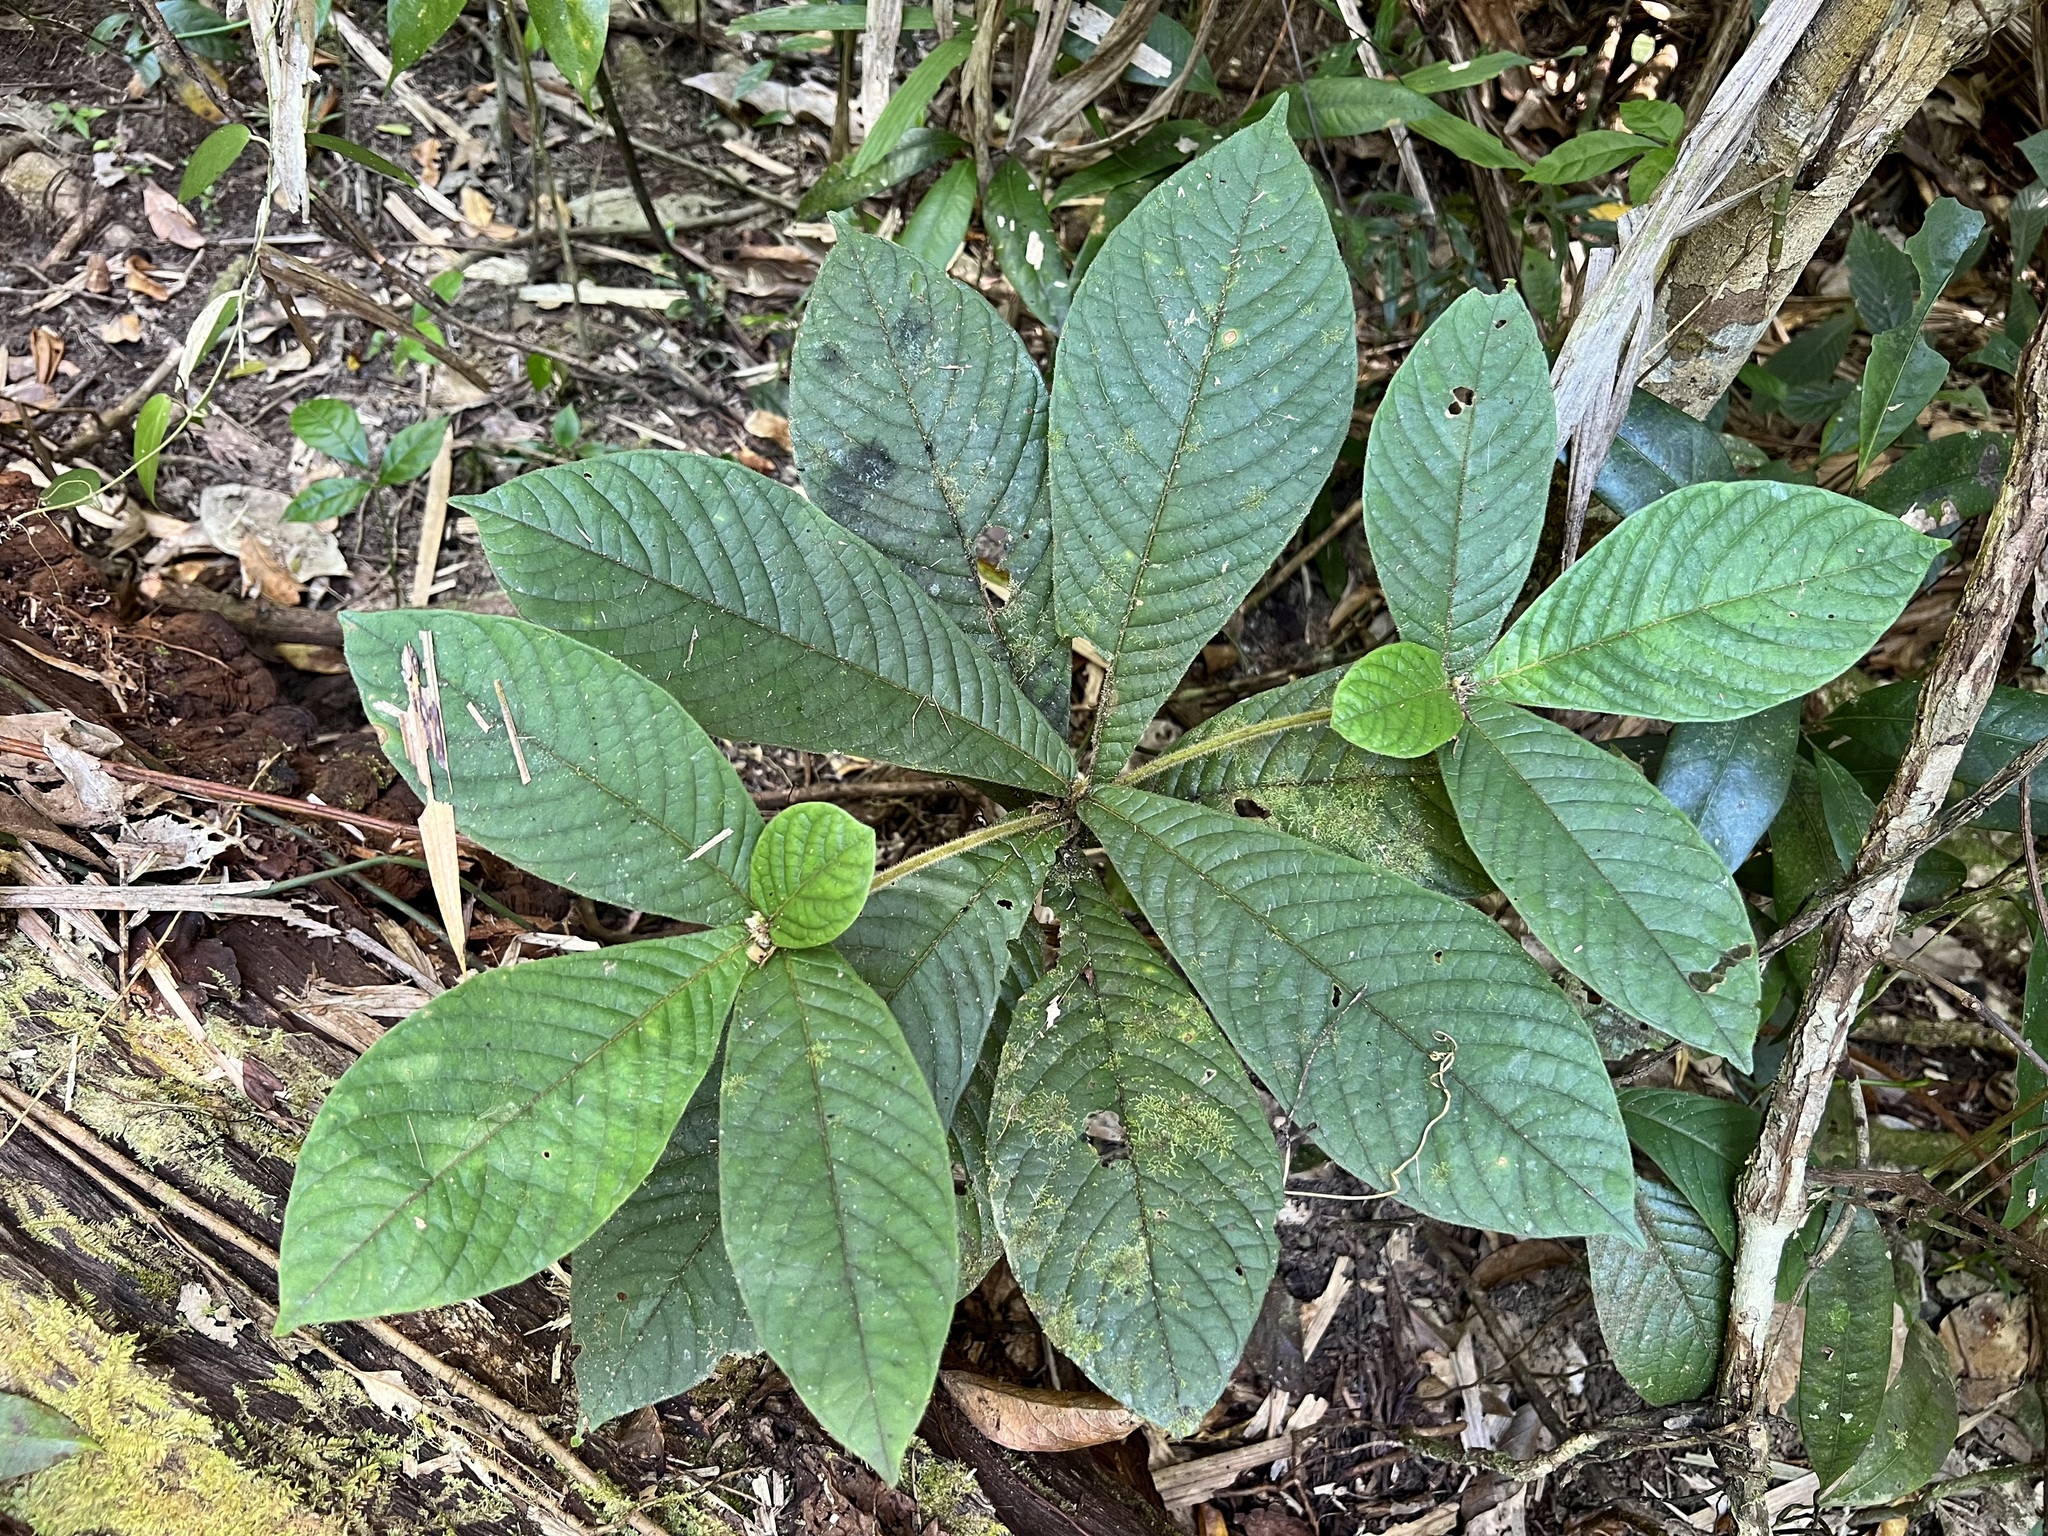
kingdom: Plantae
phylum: Tracheophyta
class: Magnoliopsida
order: Gentianales
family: Rubiaceae
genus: Atractocarpus
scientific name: Atractocarpus hirtus
